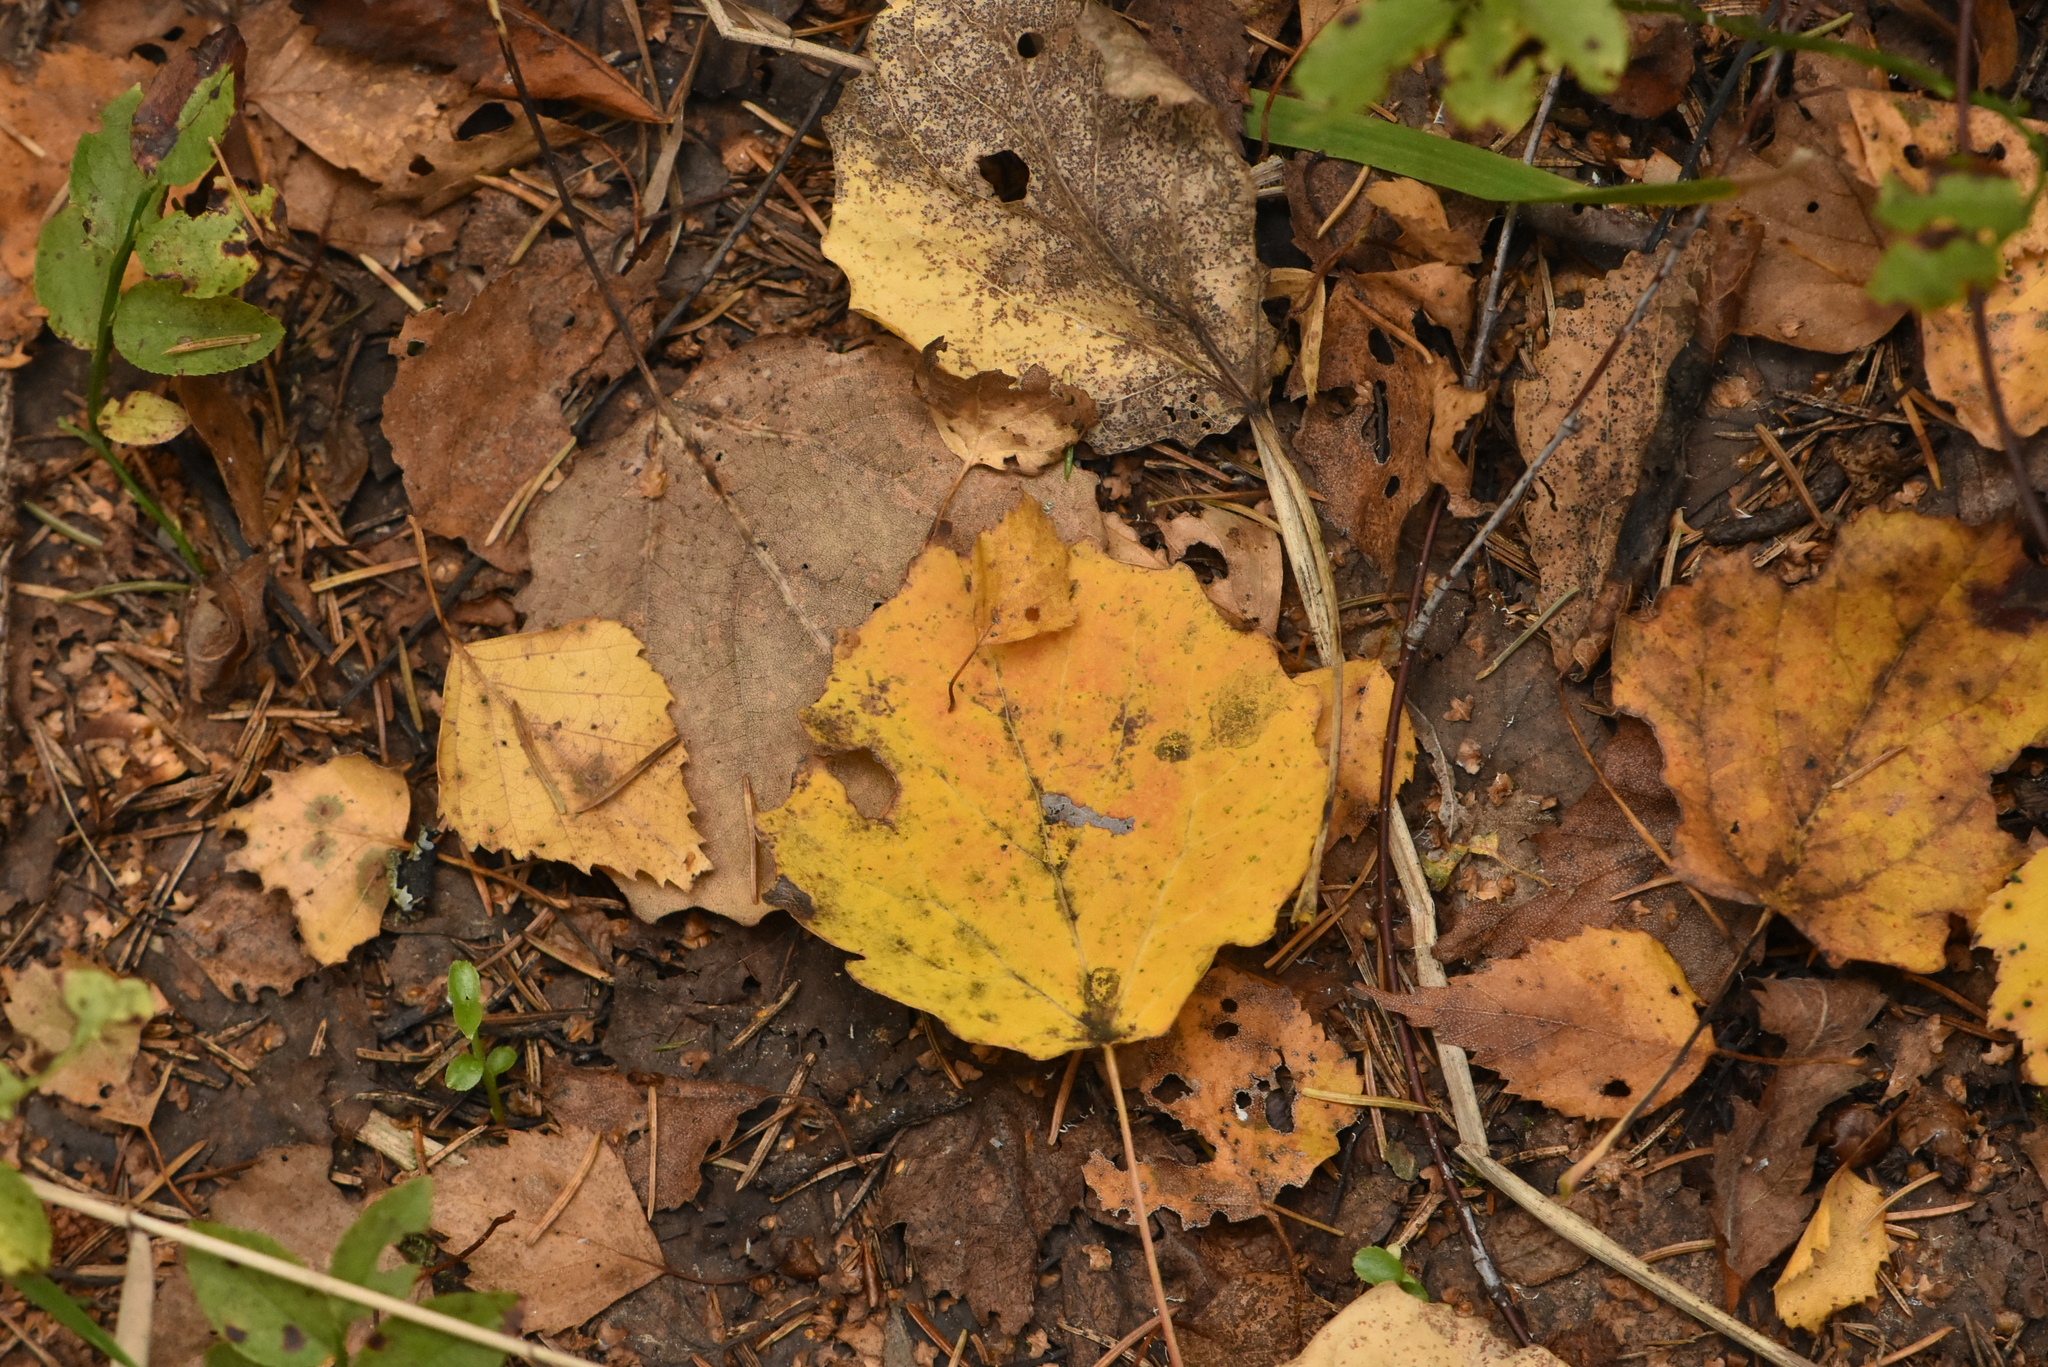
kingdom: Plantae
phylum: Tracheophyta
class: Magnoliopsida
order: Malpighiales
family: Salicaceae
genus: Populus
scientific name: Populus tremula
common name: European aspen
